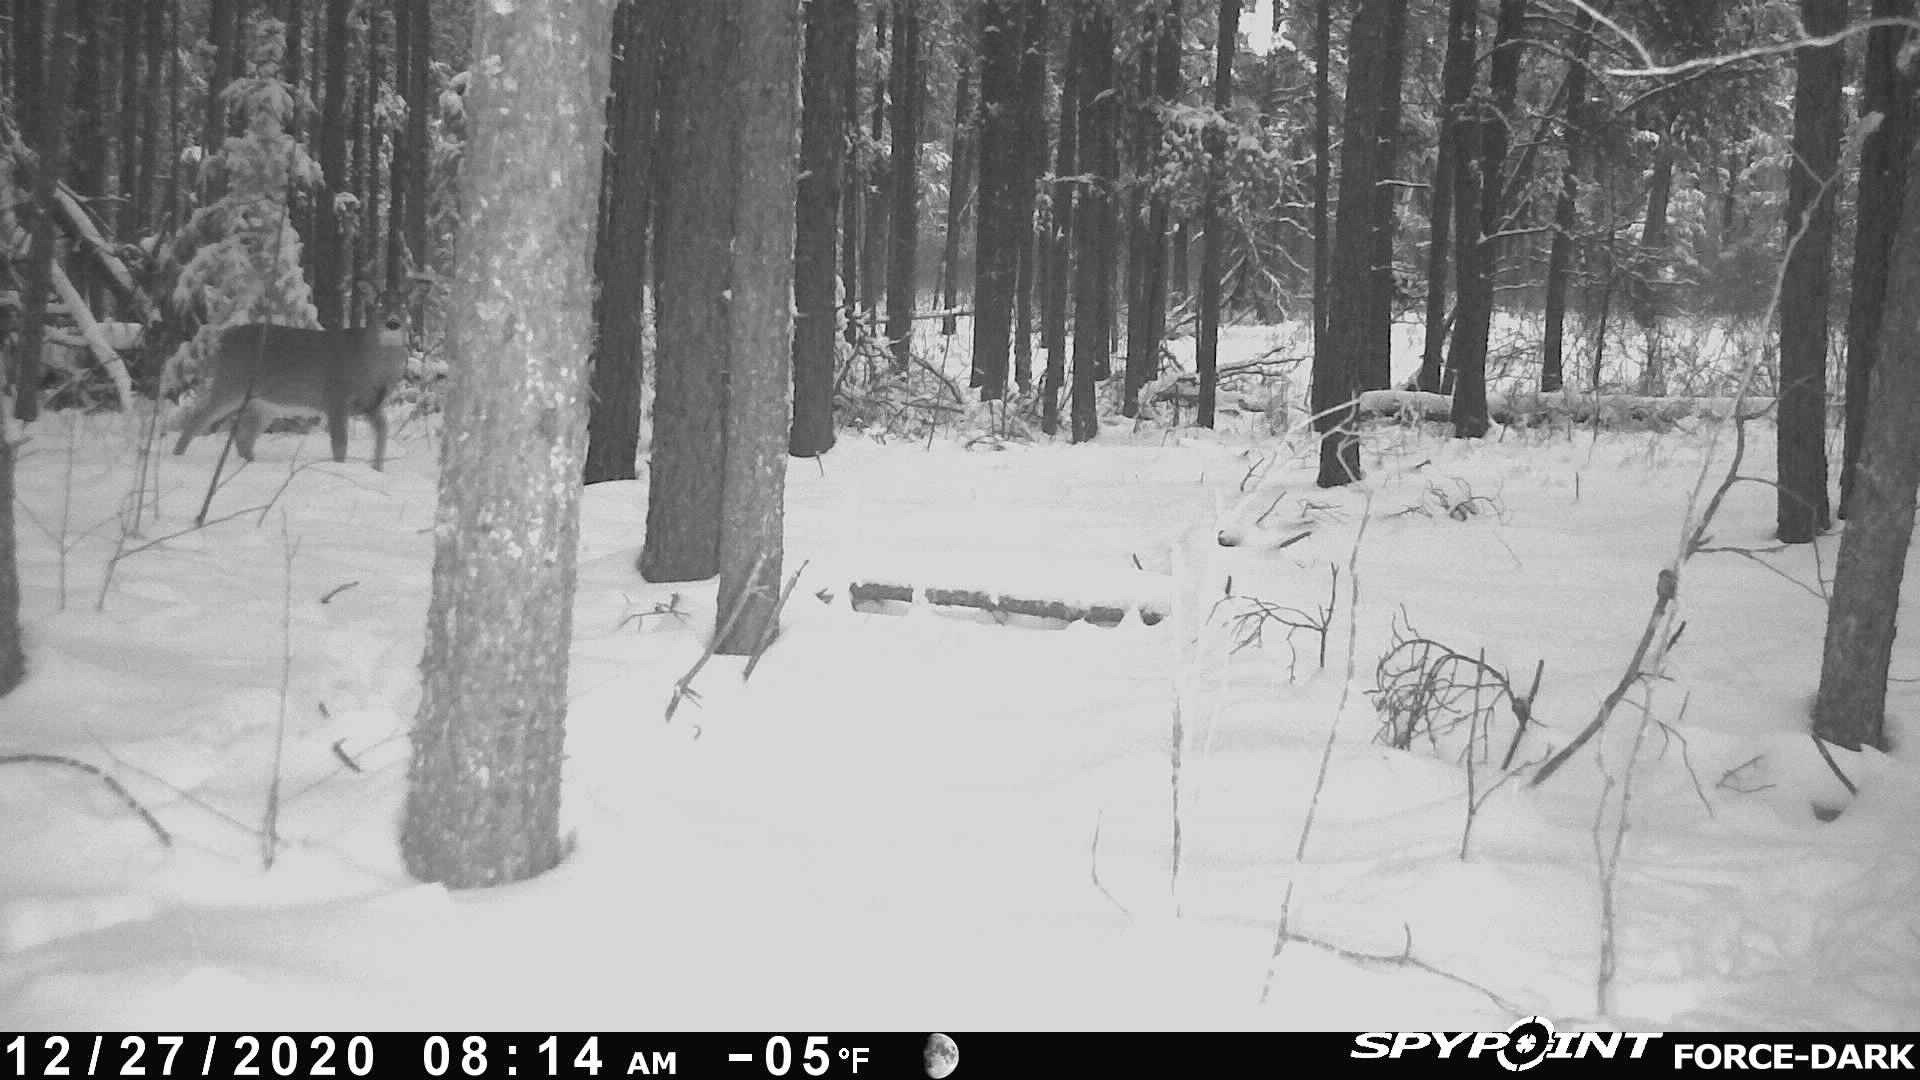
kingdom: Animalia
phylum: Chordata
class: Mammalia
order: Artiodactyla
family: Cervidae
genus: Odocoileus
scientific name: Odocoileus virginianus
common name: White-tailed deer
